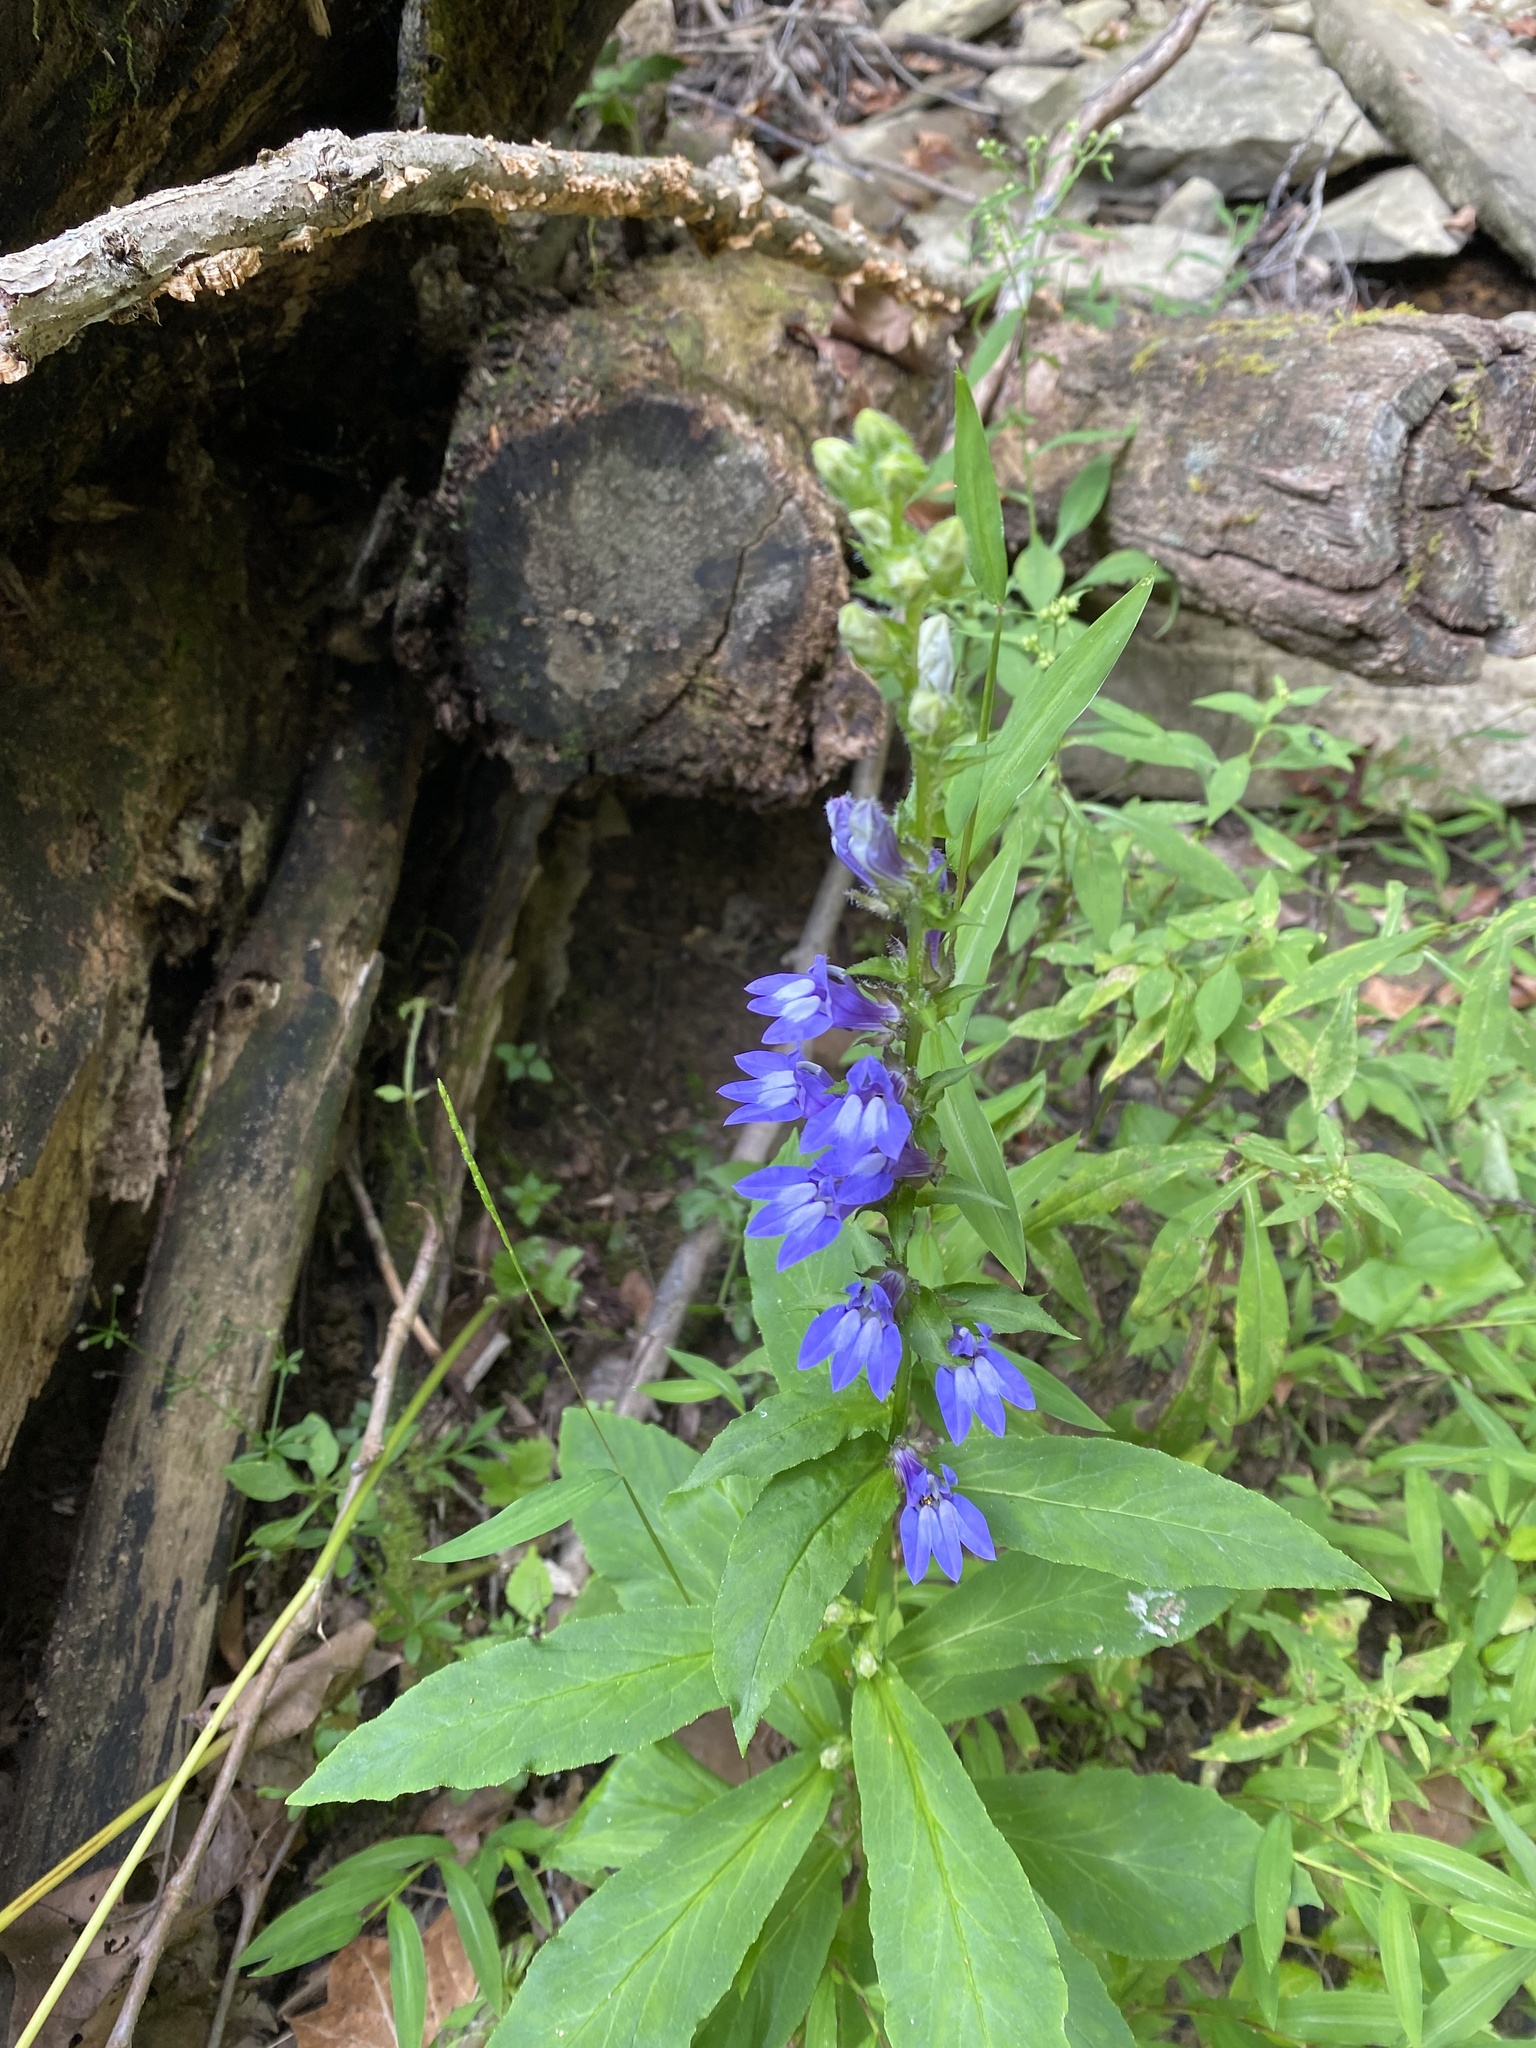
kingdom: Plantae
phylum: Tracheophyta
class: Magnoliopsida
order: Asterales
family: Campanulaceae
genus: Lobelia
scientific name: Lobelia siphilitica
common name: Great lobelia
